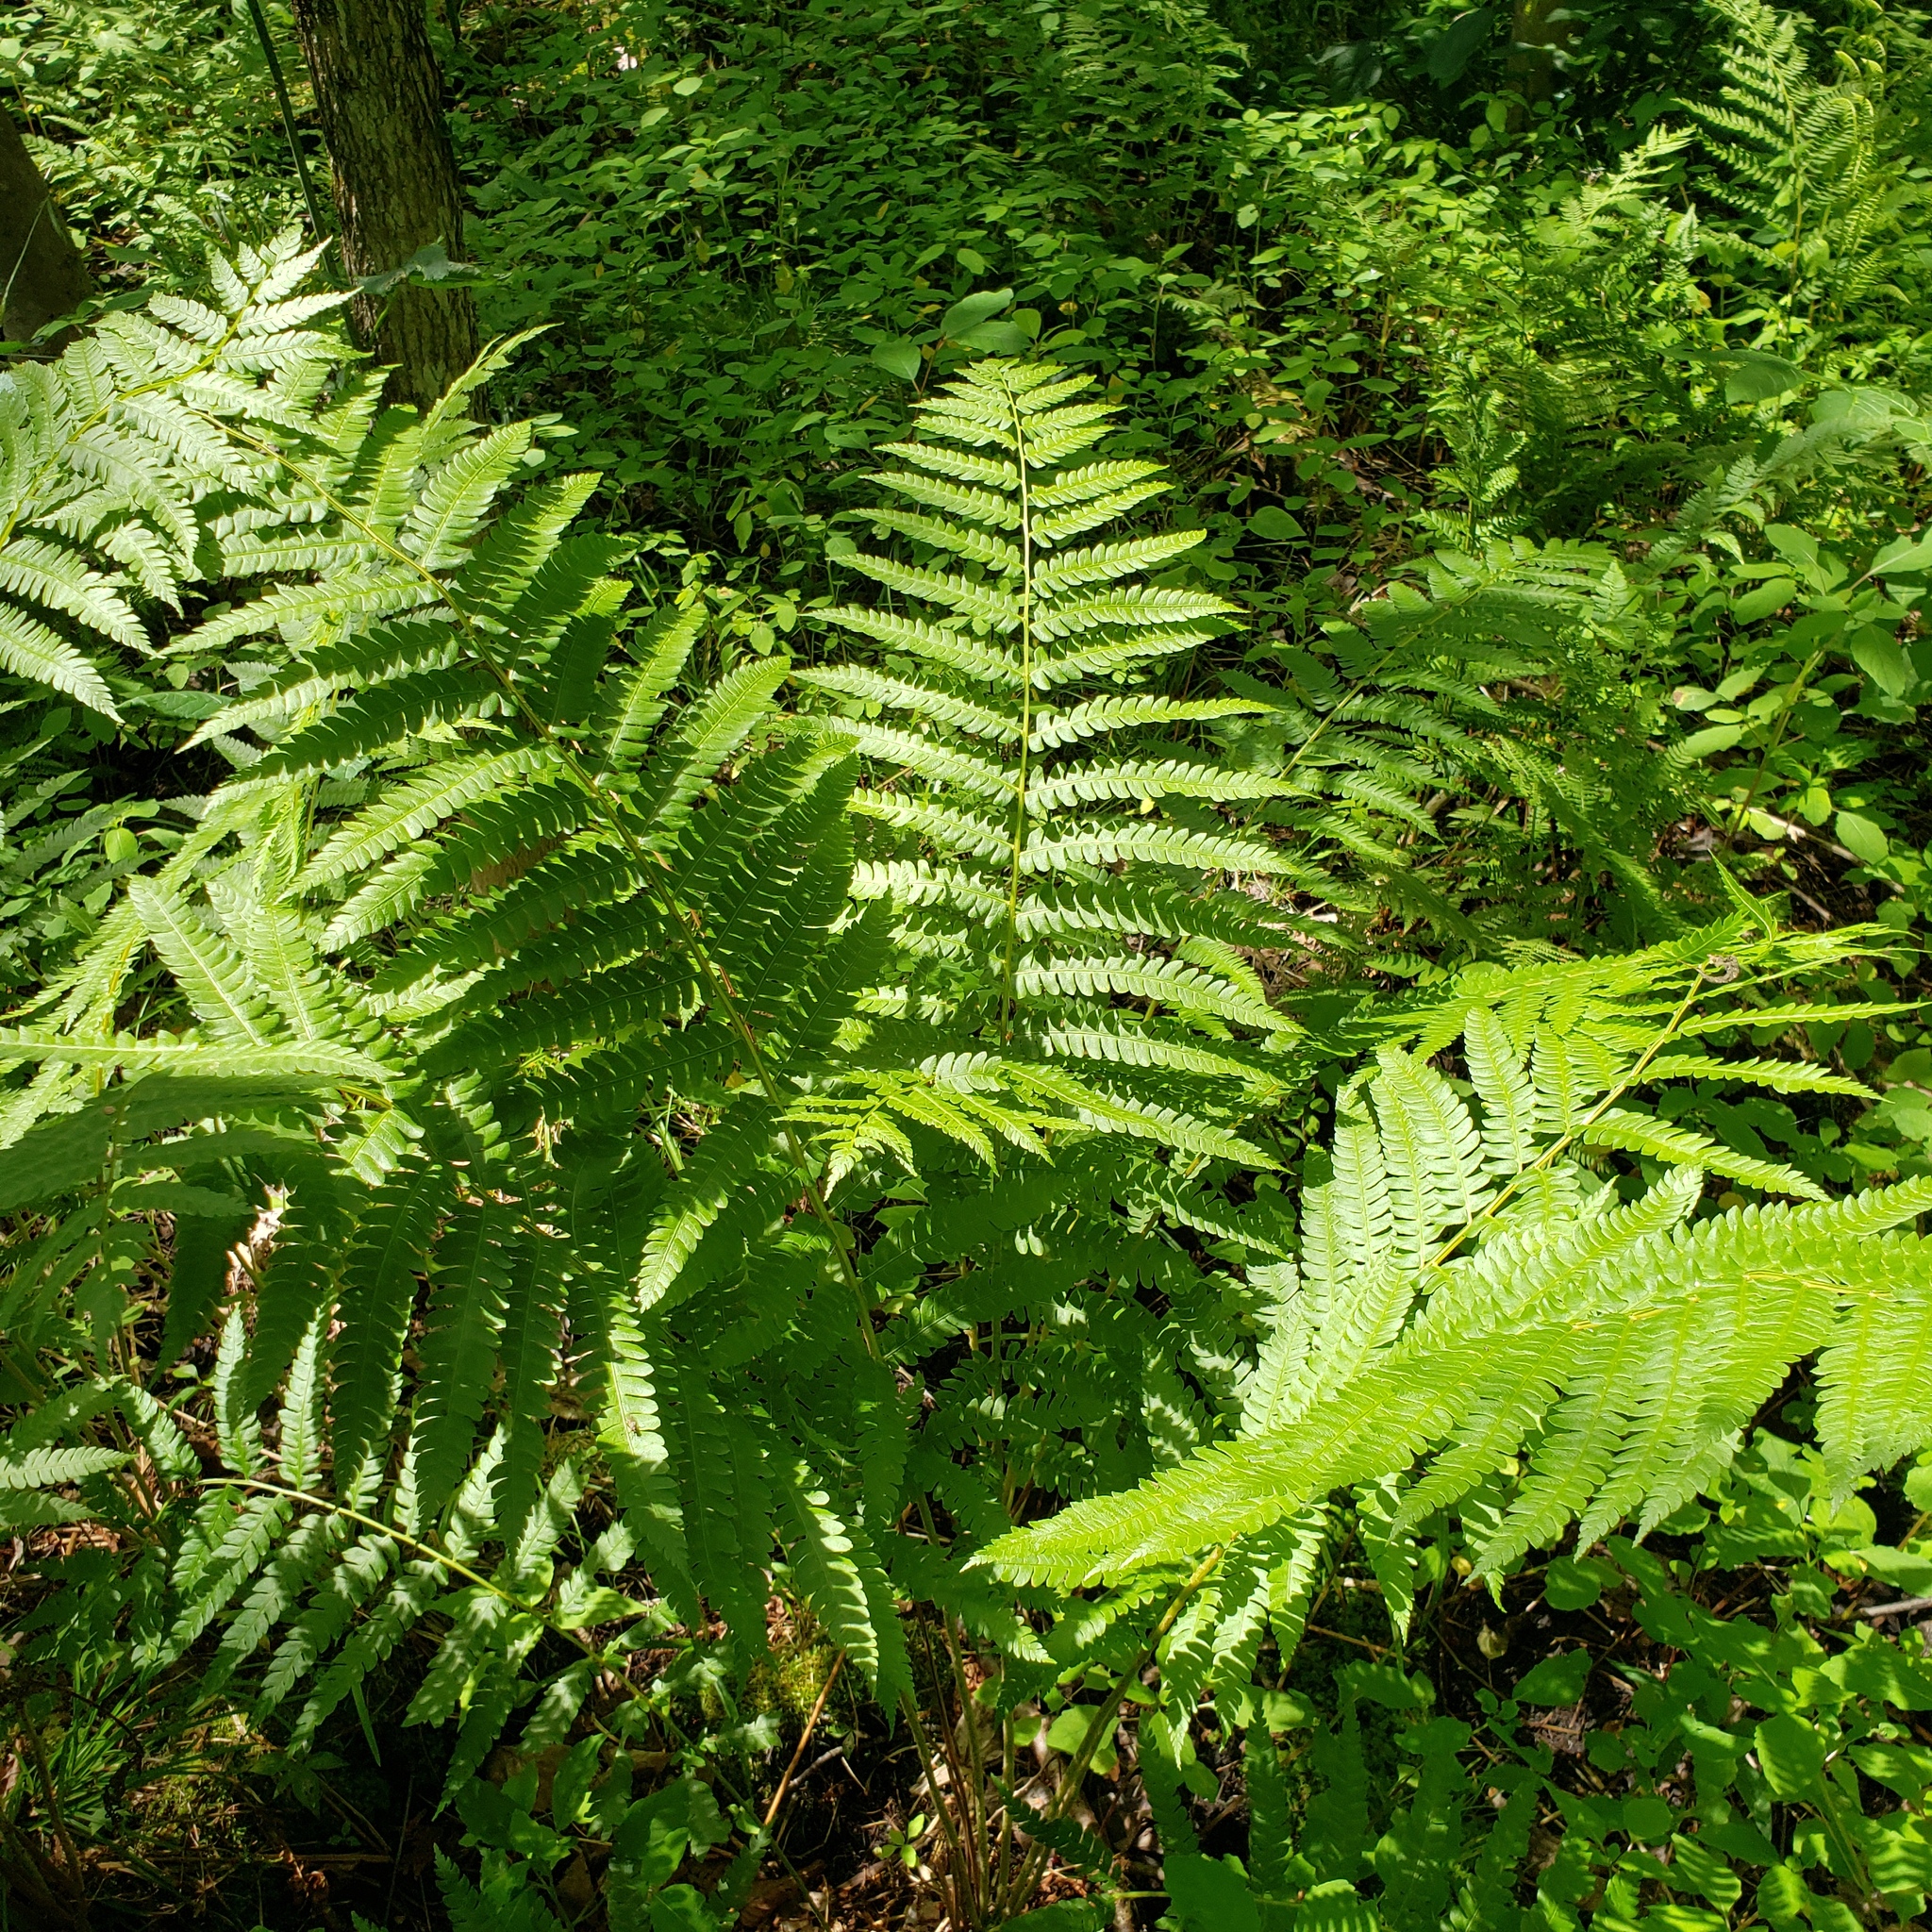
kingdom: Plantae
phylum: Tracheophyta
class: Polypodiopsida
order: Osmundales
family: Osmundaceae
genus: Osmundastrum
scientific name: Osmundastrum cinnamomeum
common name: Cinnamon fern
